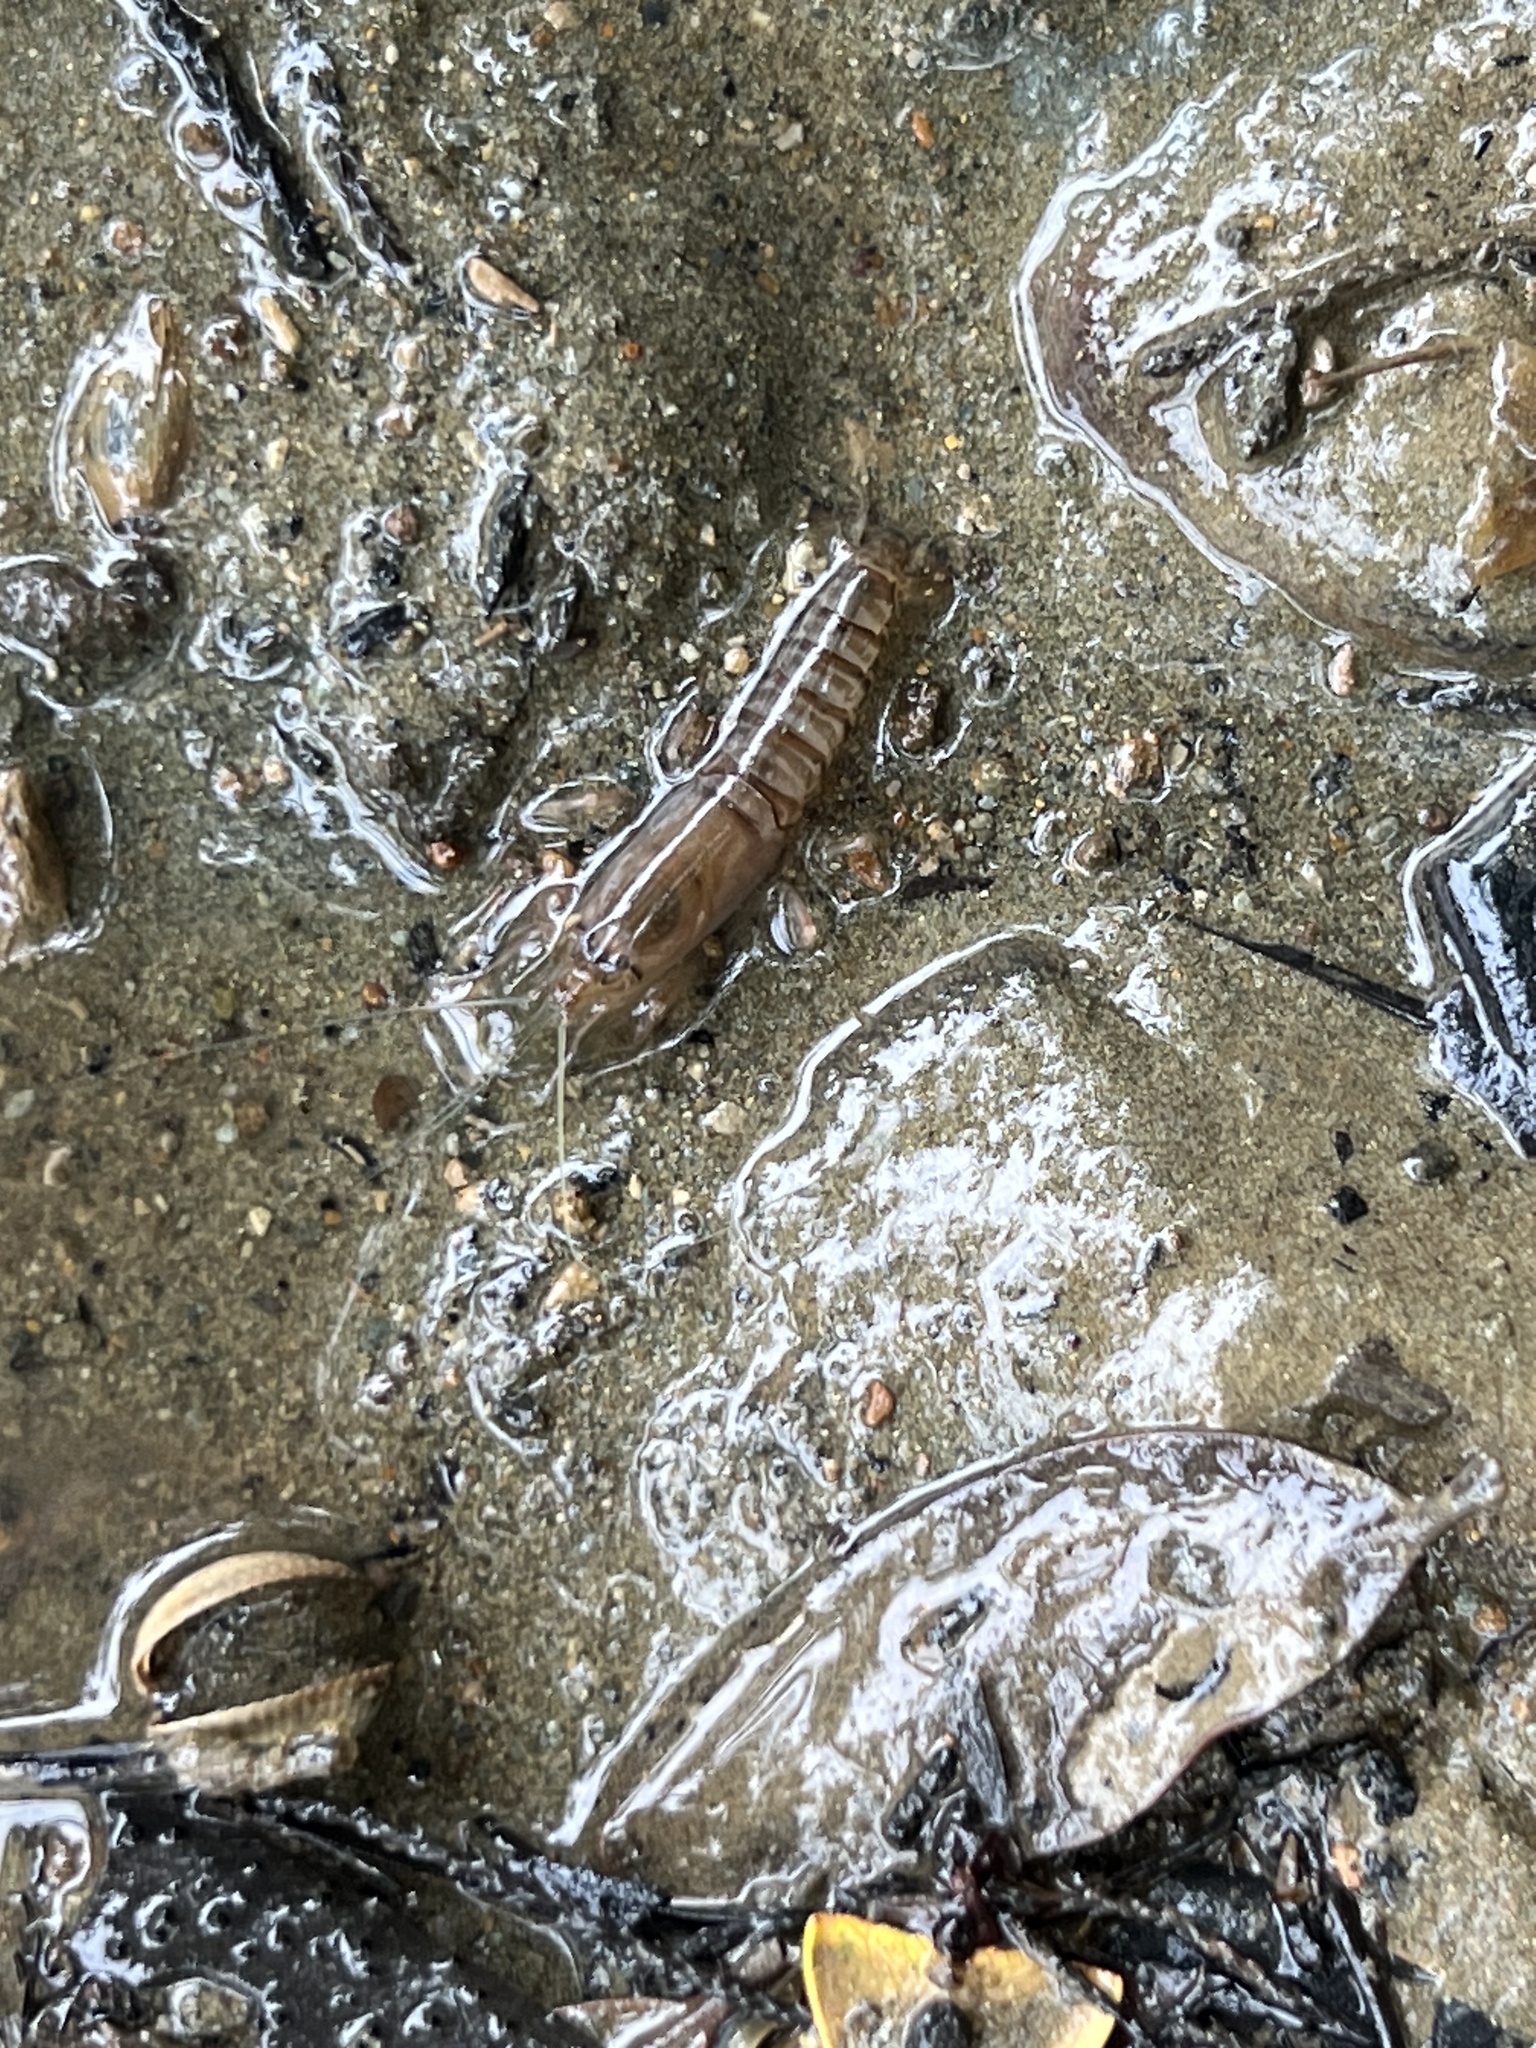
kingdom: Animalia
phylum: Arthropoda
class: Malacostraca
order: Decapoda
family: Alpheidae
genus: Alpheus
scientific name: Alpheus richardsoni
